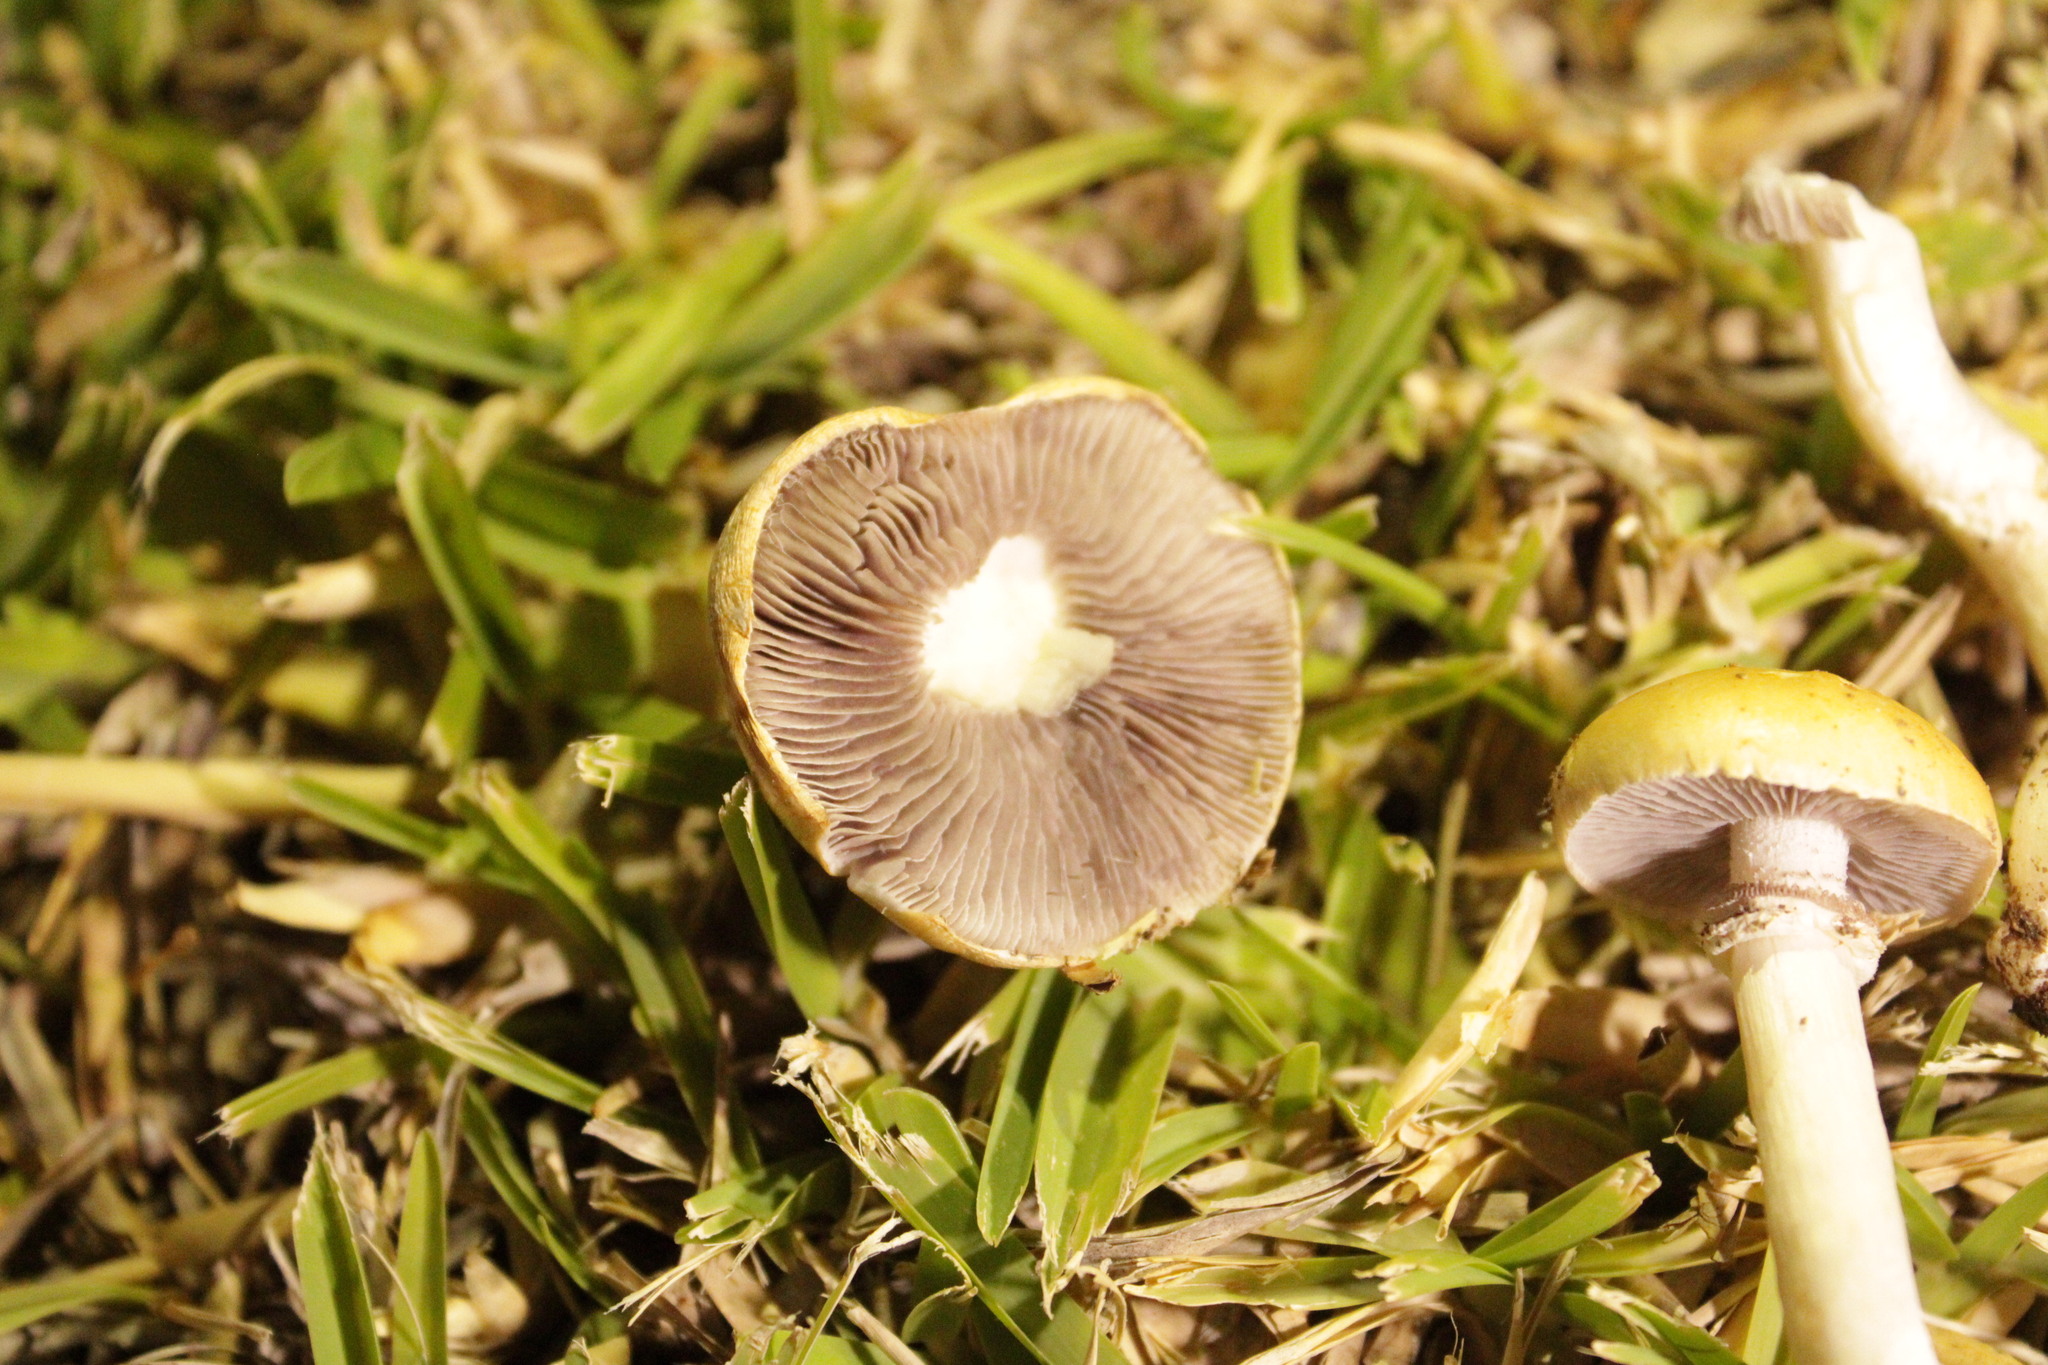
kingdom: Fungi
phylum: Basidiomycota
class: Agaricomycetes
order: Agaricales
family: Hymenogastraceae
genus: Psilocybe
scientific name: Psilocybe coronilla
